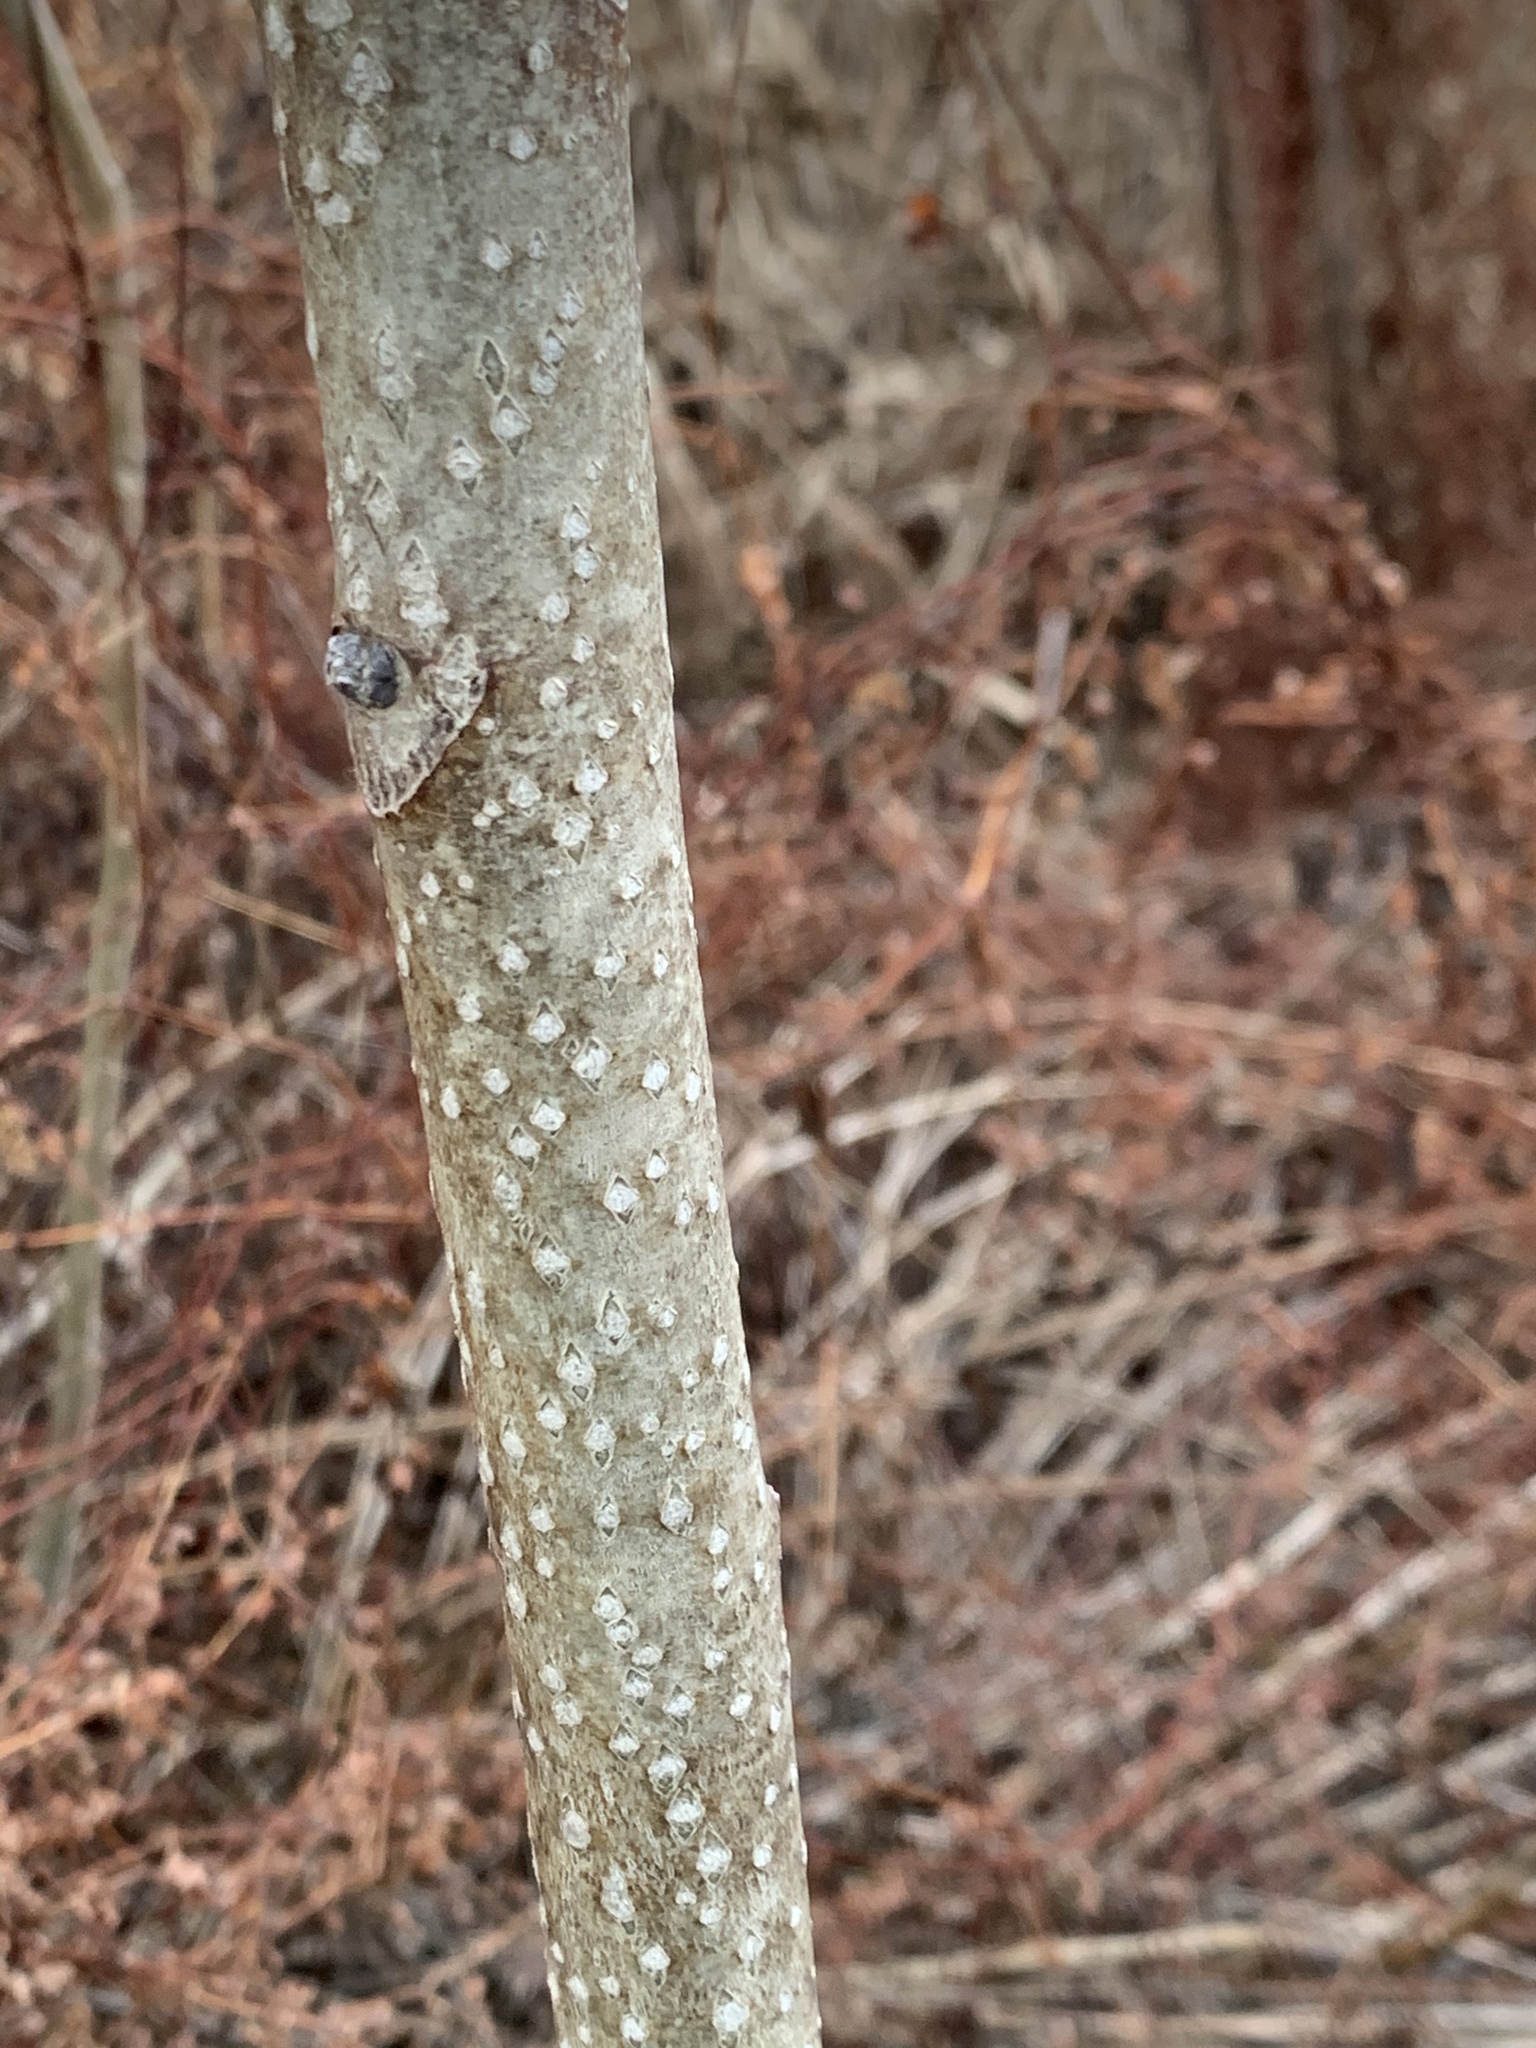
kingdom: Plantae
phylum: Tracheophyta
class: Magnoliopsida
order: Sapindales
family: Simaroubaceae
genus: Ailanthus
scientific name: Ailanthus altissima
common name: Tree-of-heaven
